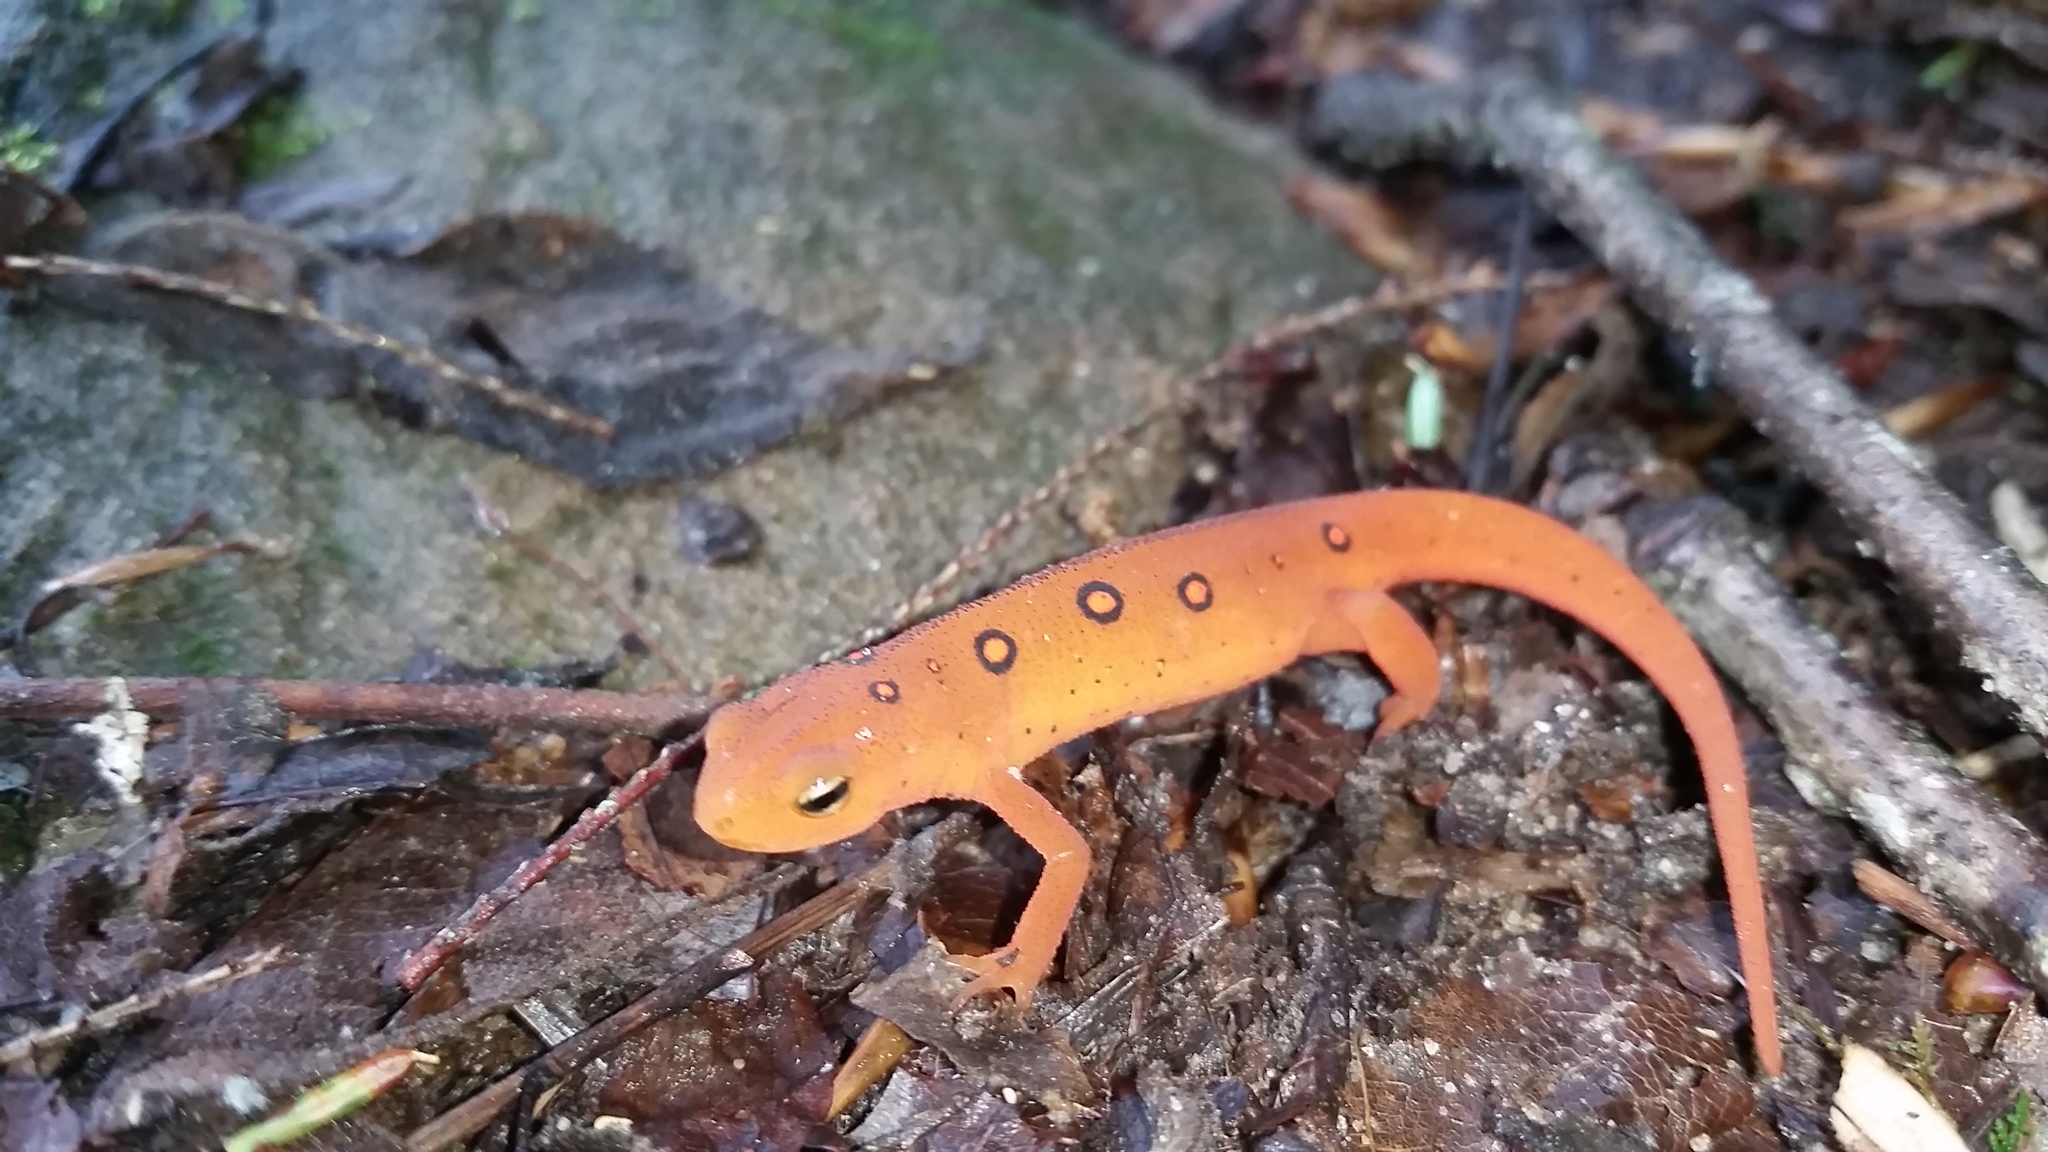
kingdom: Animalia
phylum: Chordata
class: Amphibia
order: Caudata
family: Salamandridae
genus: Notophthalmus
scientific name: Notophthalmus viridescens
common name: Eastern newt
